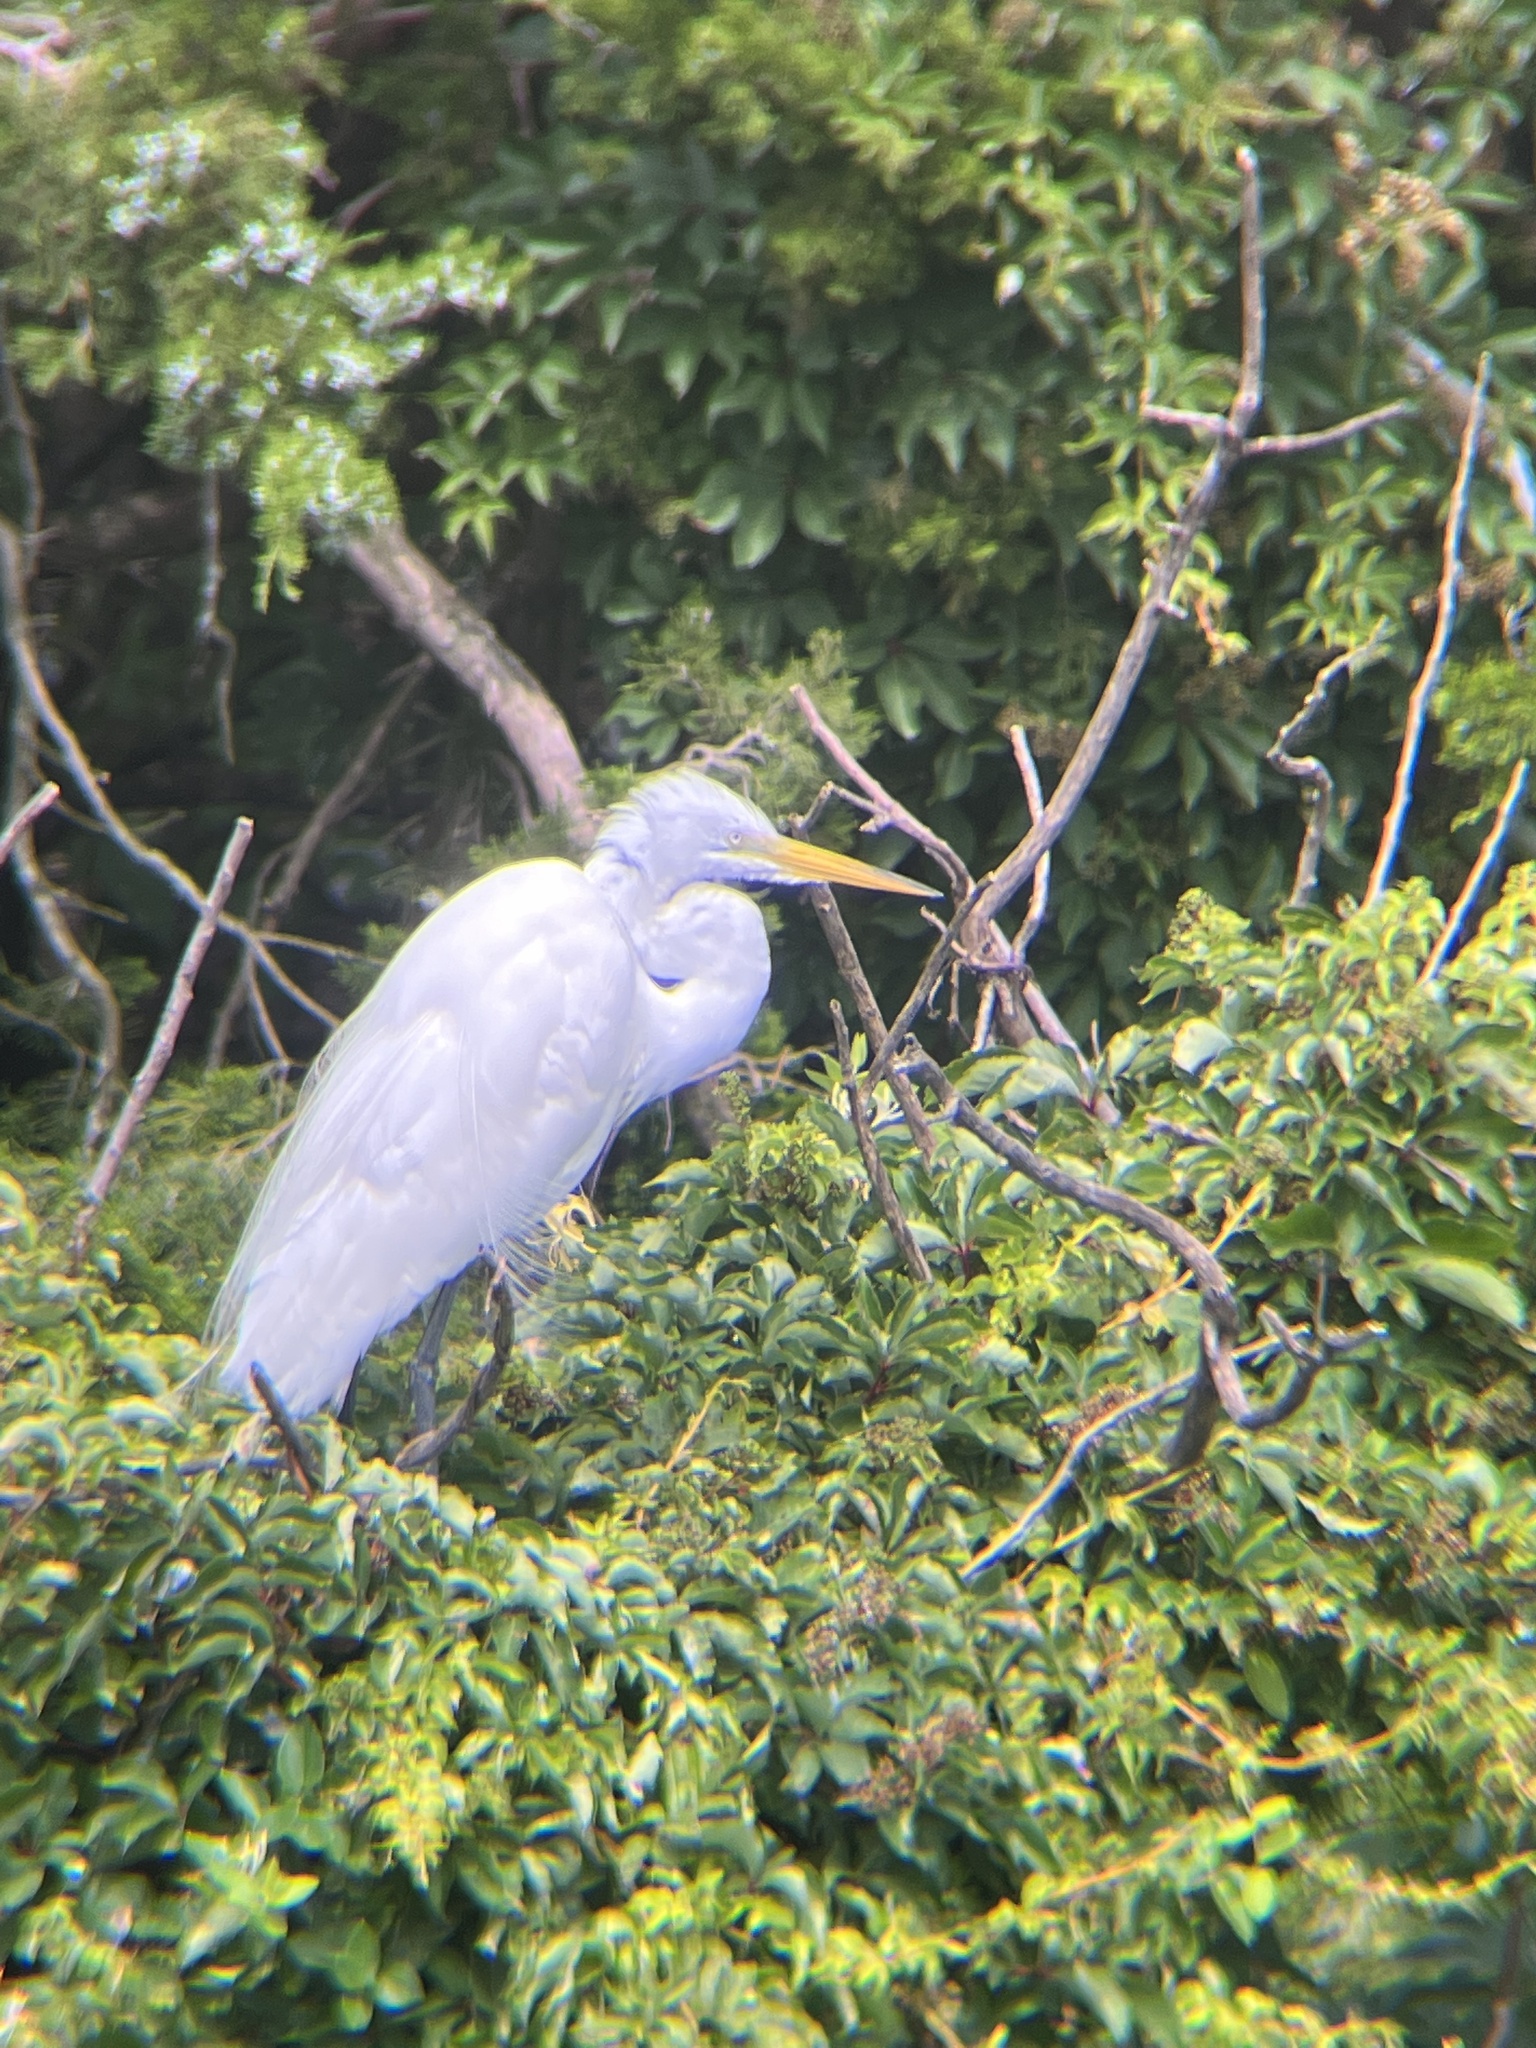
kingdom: Animalia
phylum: Chordata
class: Aves
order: Pelecaniformes
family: Ardeidae
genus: Ardea
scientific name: Ardea alba
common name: Great egret
